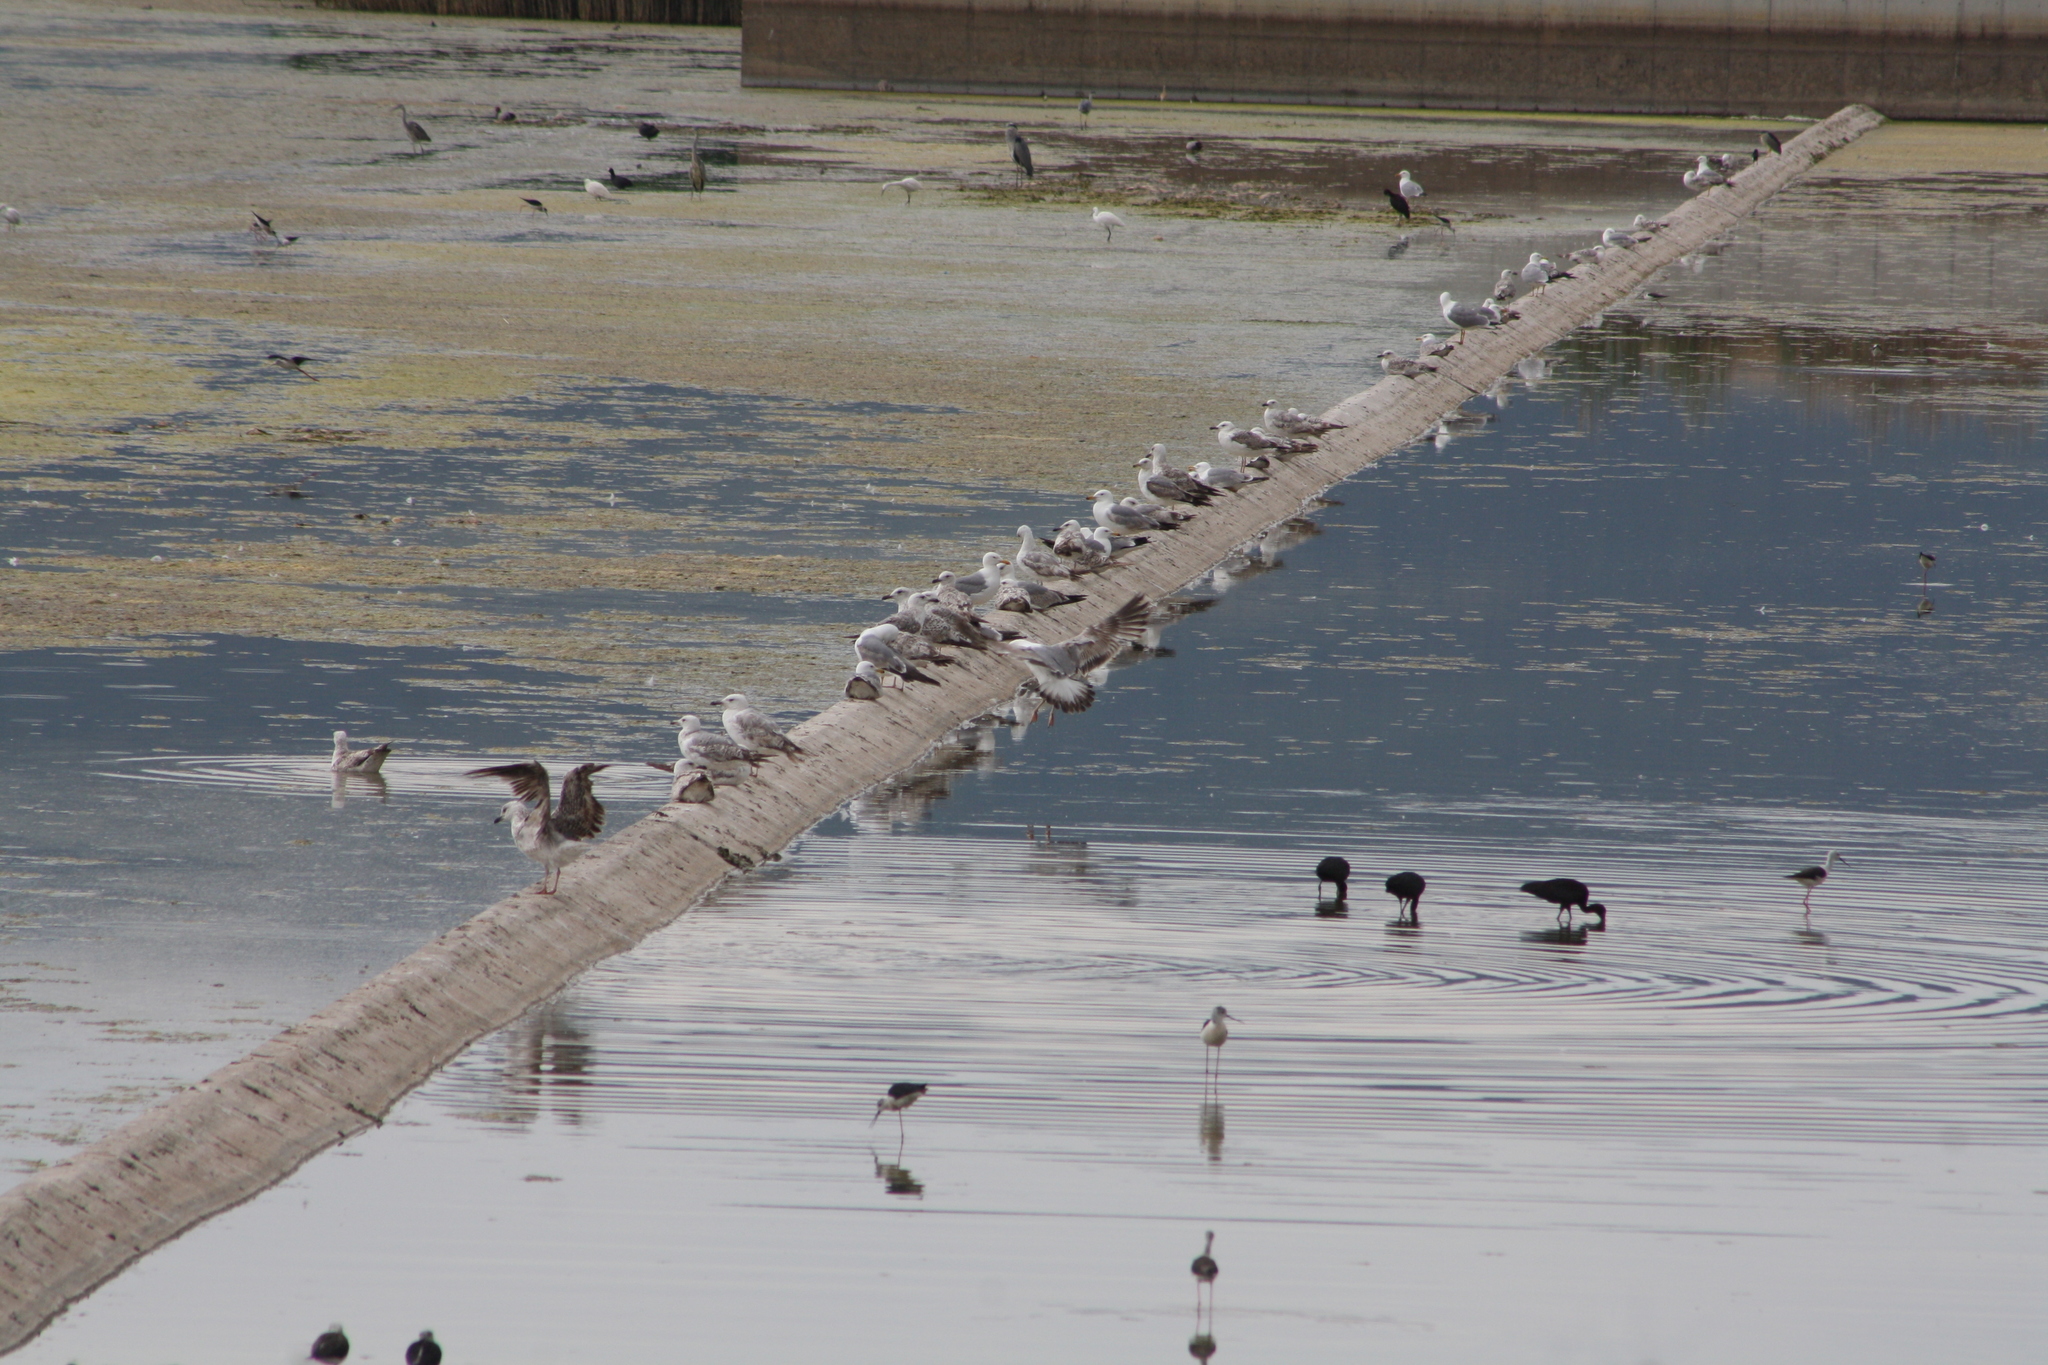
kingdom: Animalia
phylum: Chordata
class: Aves
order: Charadriiformes
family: Laridae
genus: Larus
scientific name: Larus michahellis
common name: Yellow-legged gull
